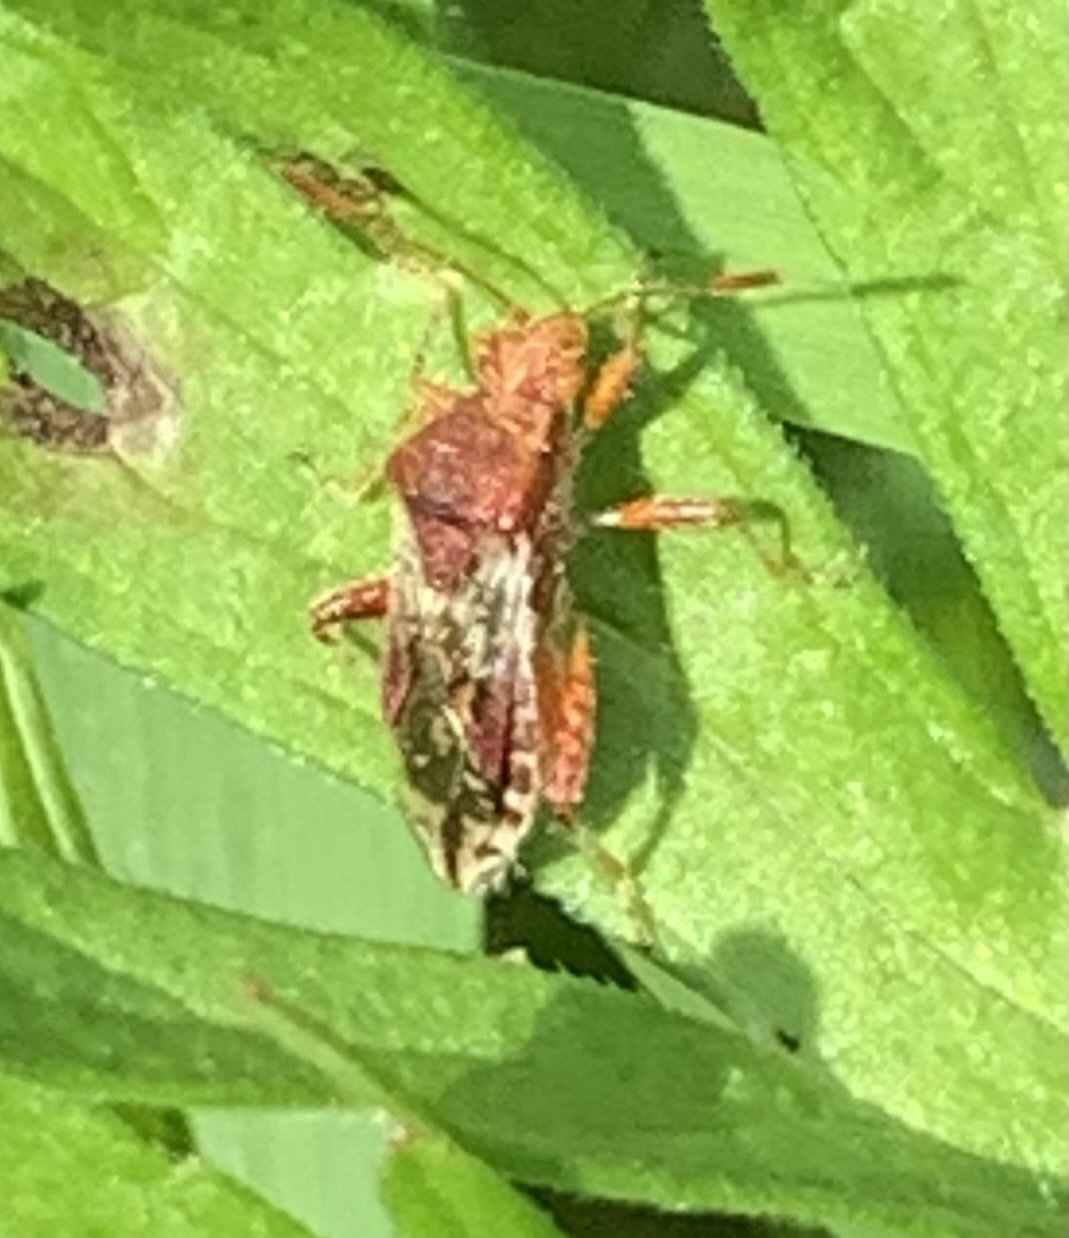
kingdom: Animalia
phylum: Arthropoda
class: Insecta
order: Hemiptera
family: Rhopalidae
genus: Rhopalus
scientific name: Rhopalus subrufus
